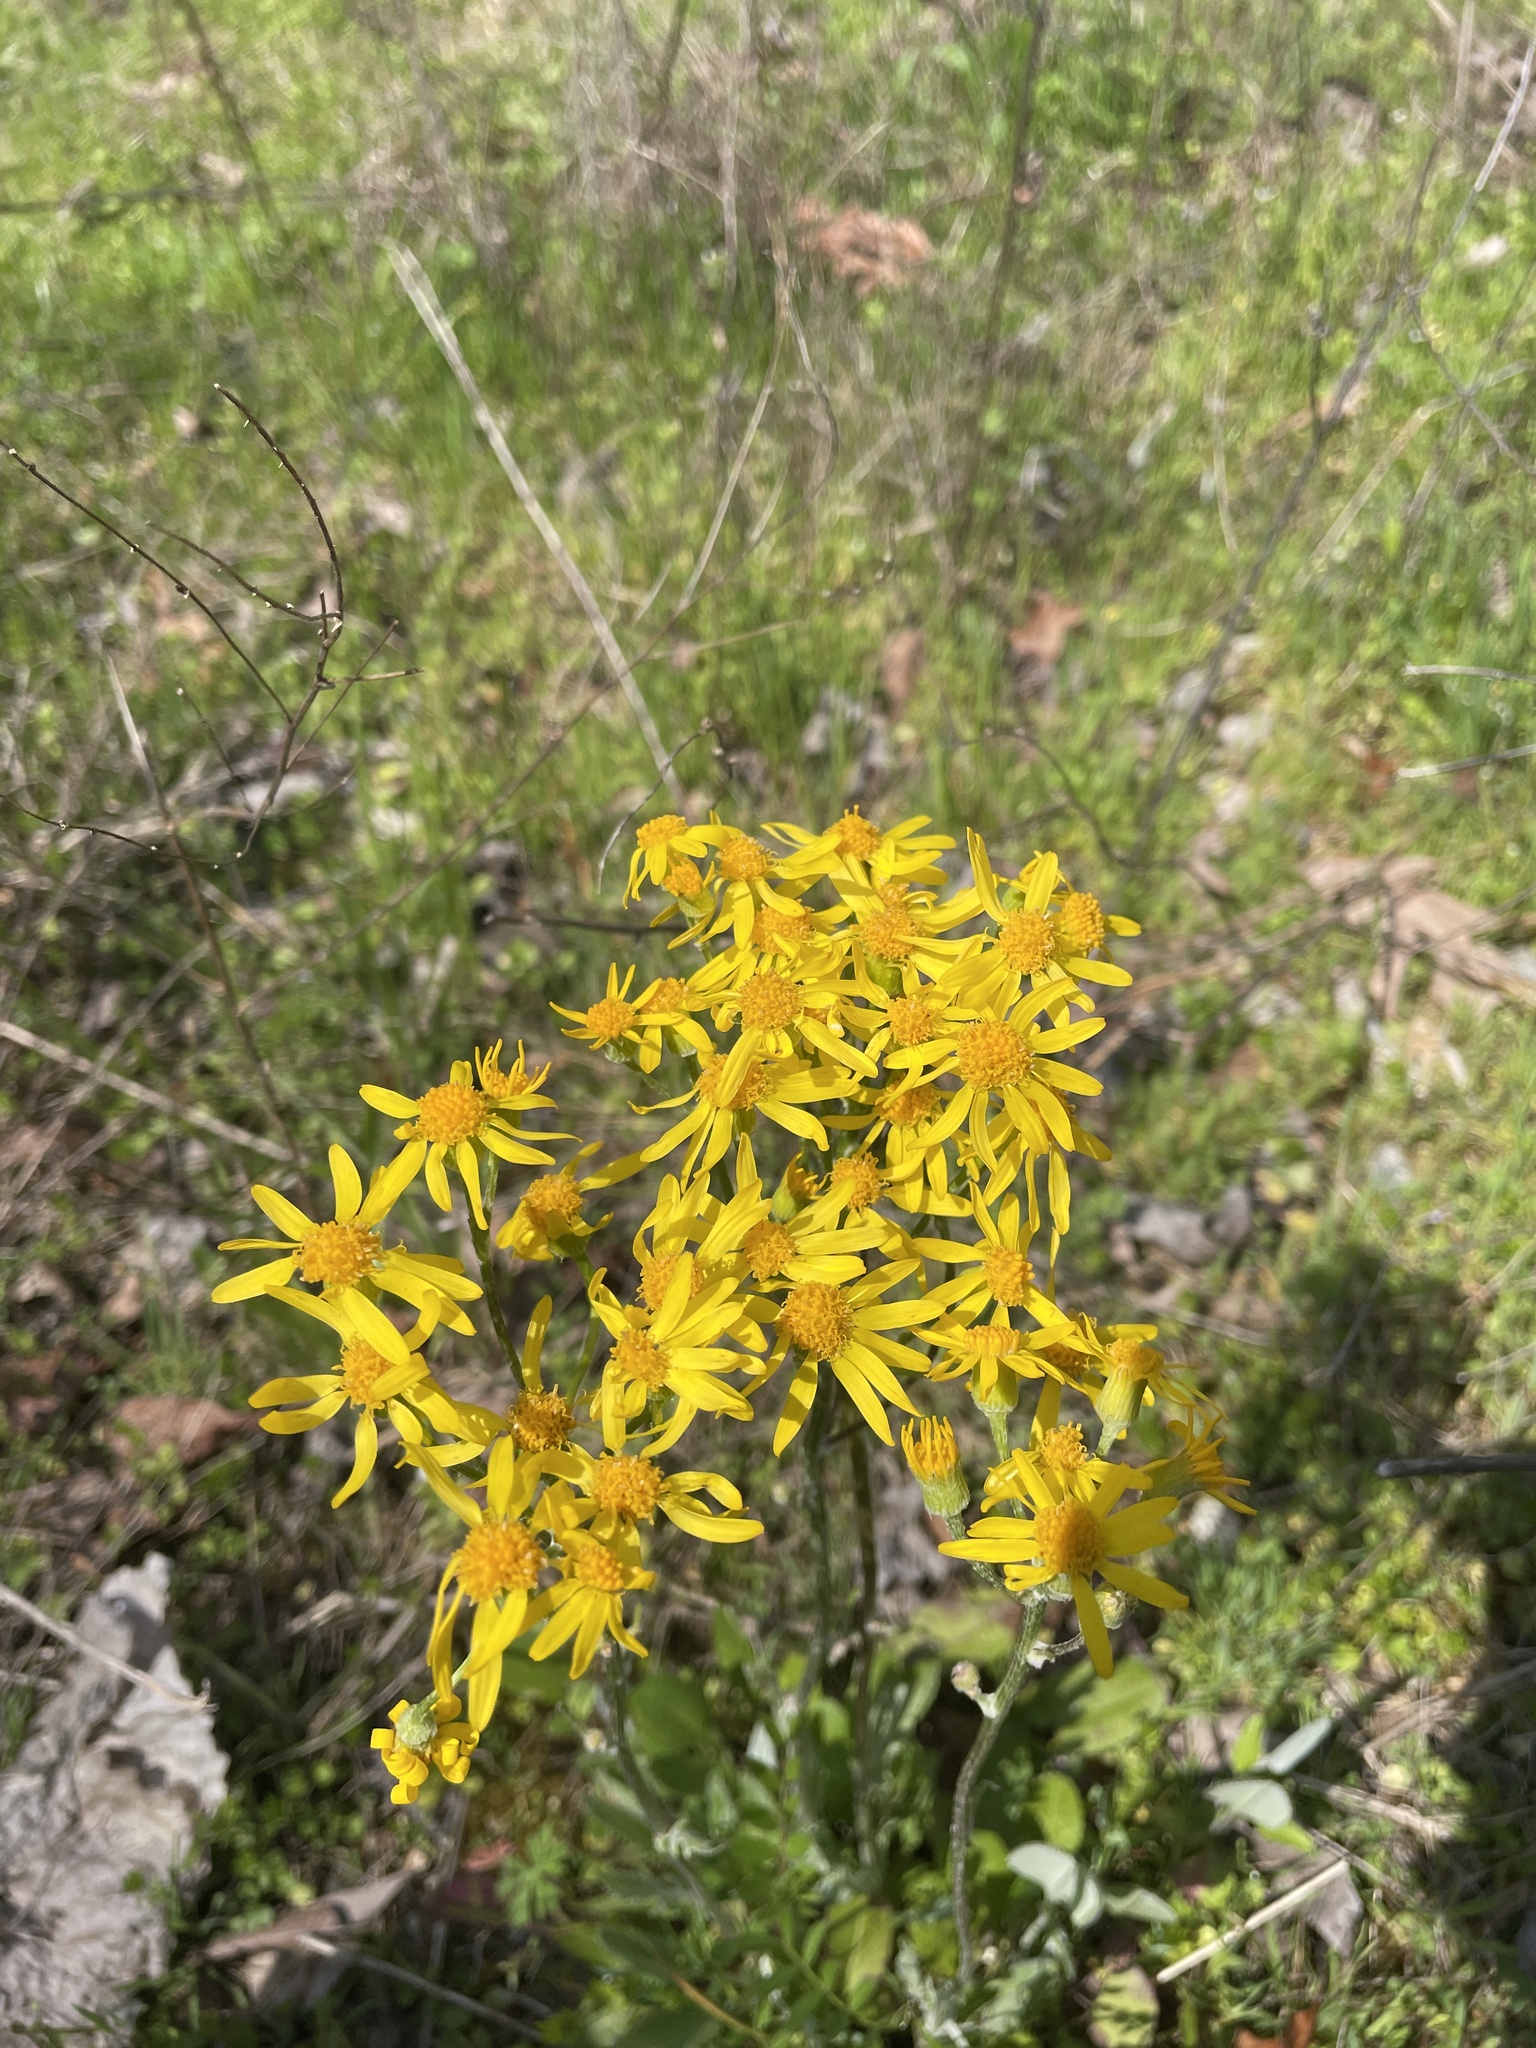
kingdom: Plantae
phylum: Tracheophyta
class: Magnoliopsida
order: Asterales
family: Asteraceae
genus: Packera
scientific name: Packera dubia
